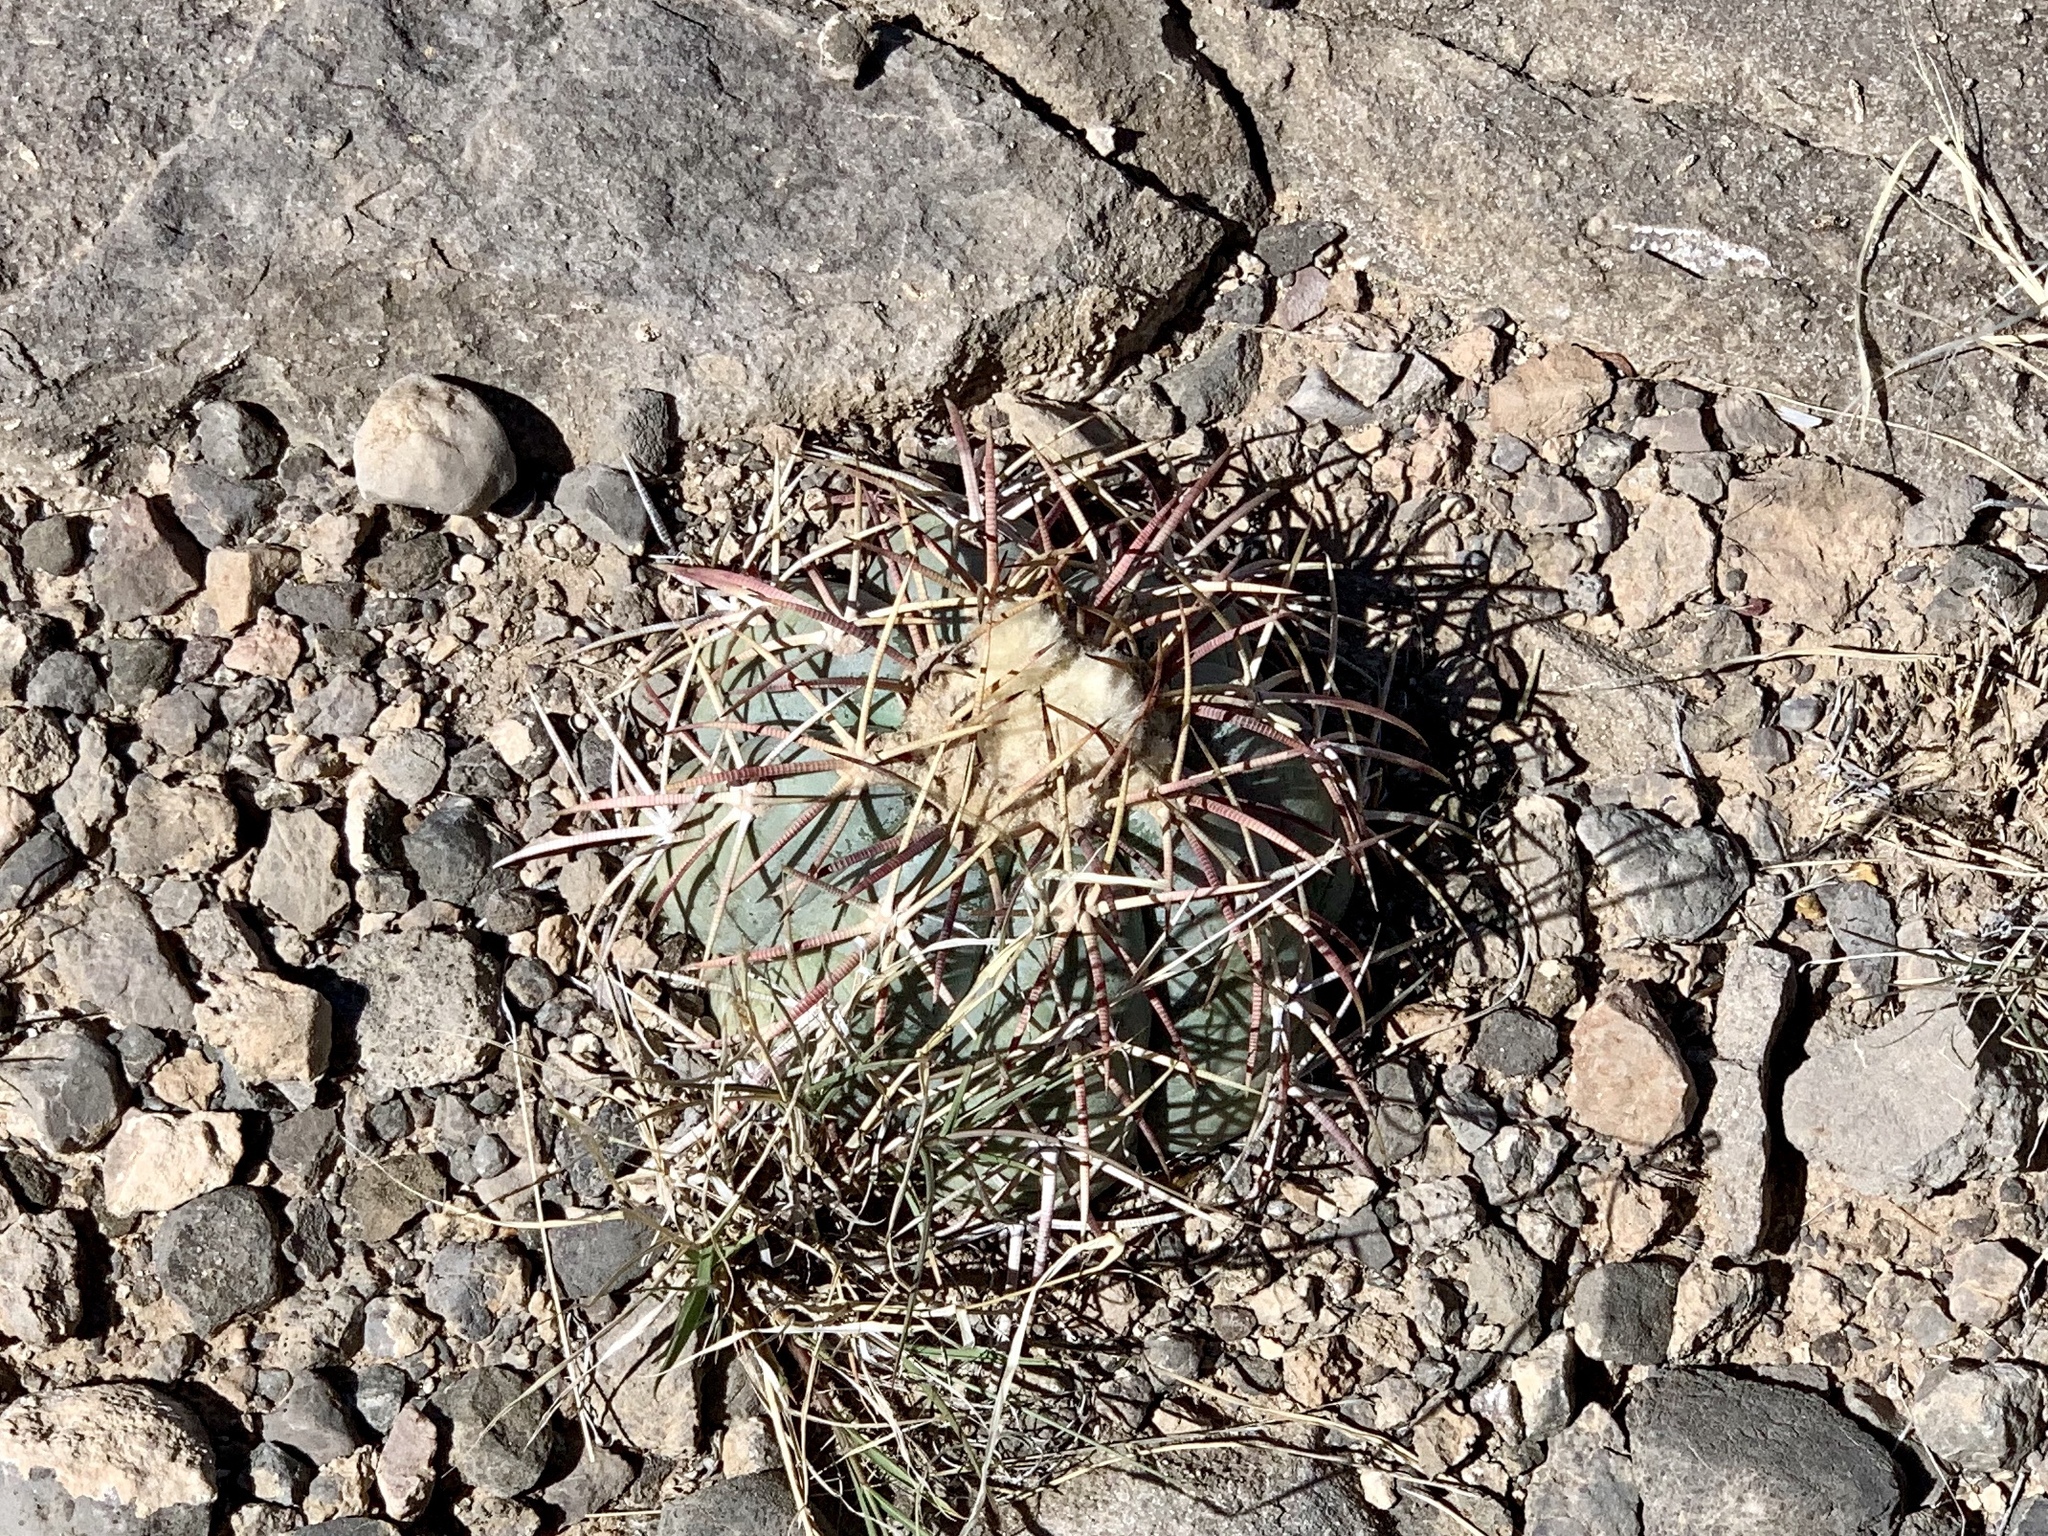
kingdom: Plantae
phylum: Tracheophyta
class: Magnoliopsida
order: Caryophyllales
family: Cactaceae
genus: Echinocactus
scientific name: Echinocactus horizonthalonius
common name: Devilshead
